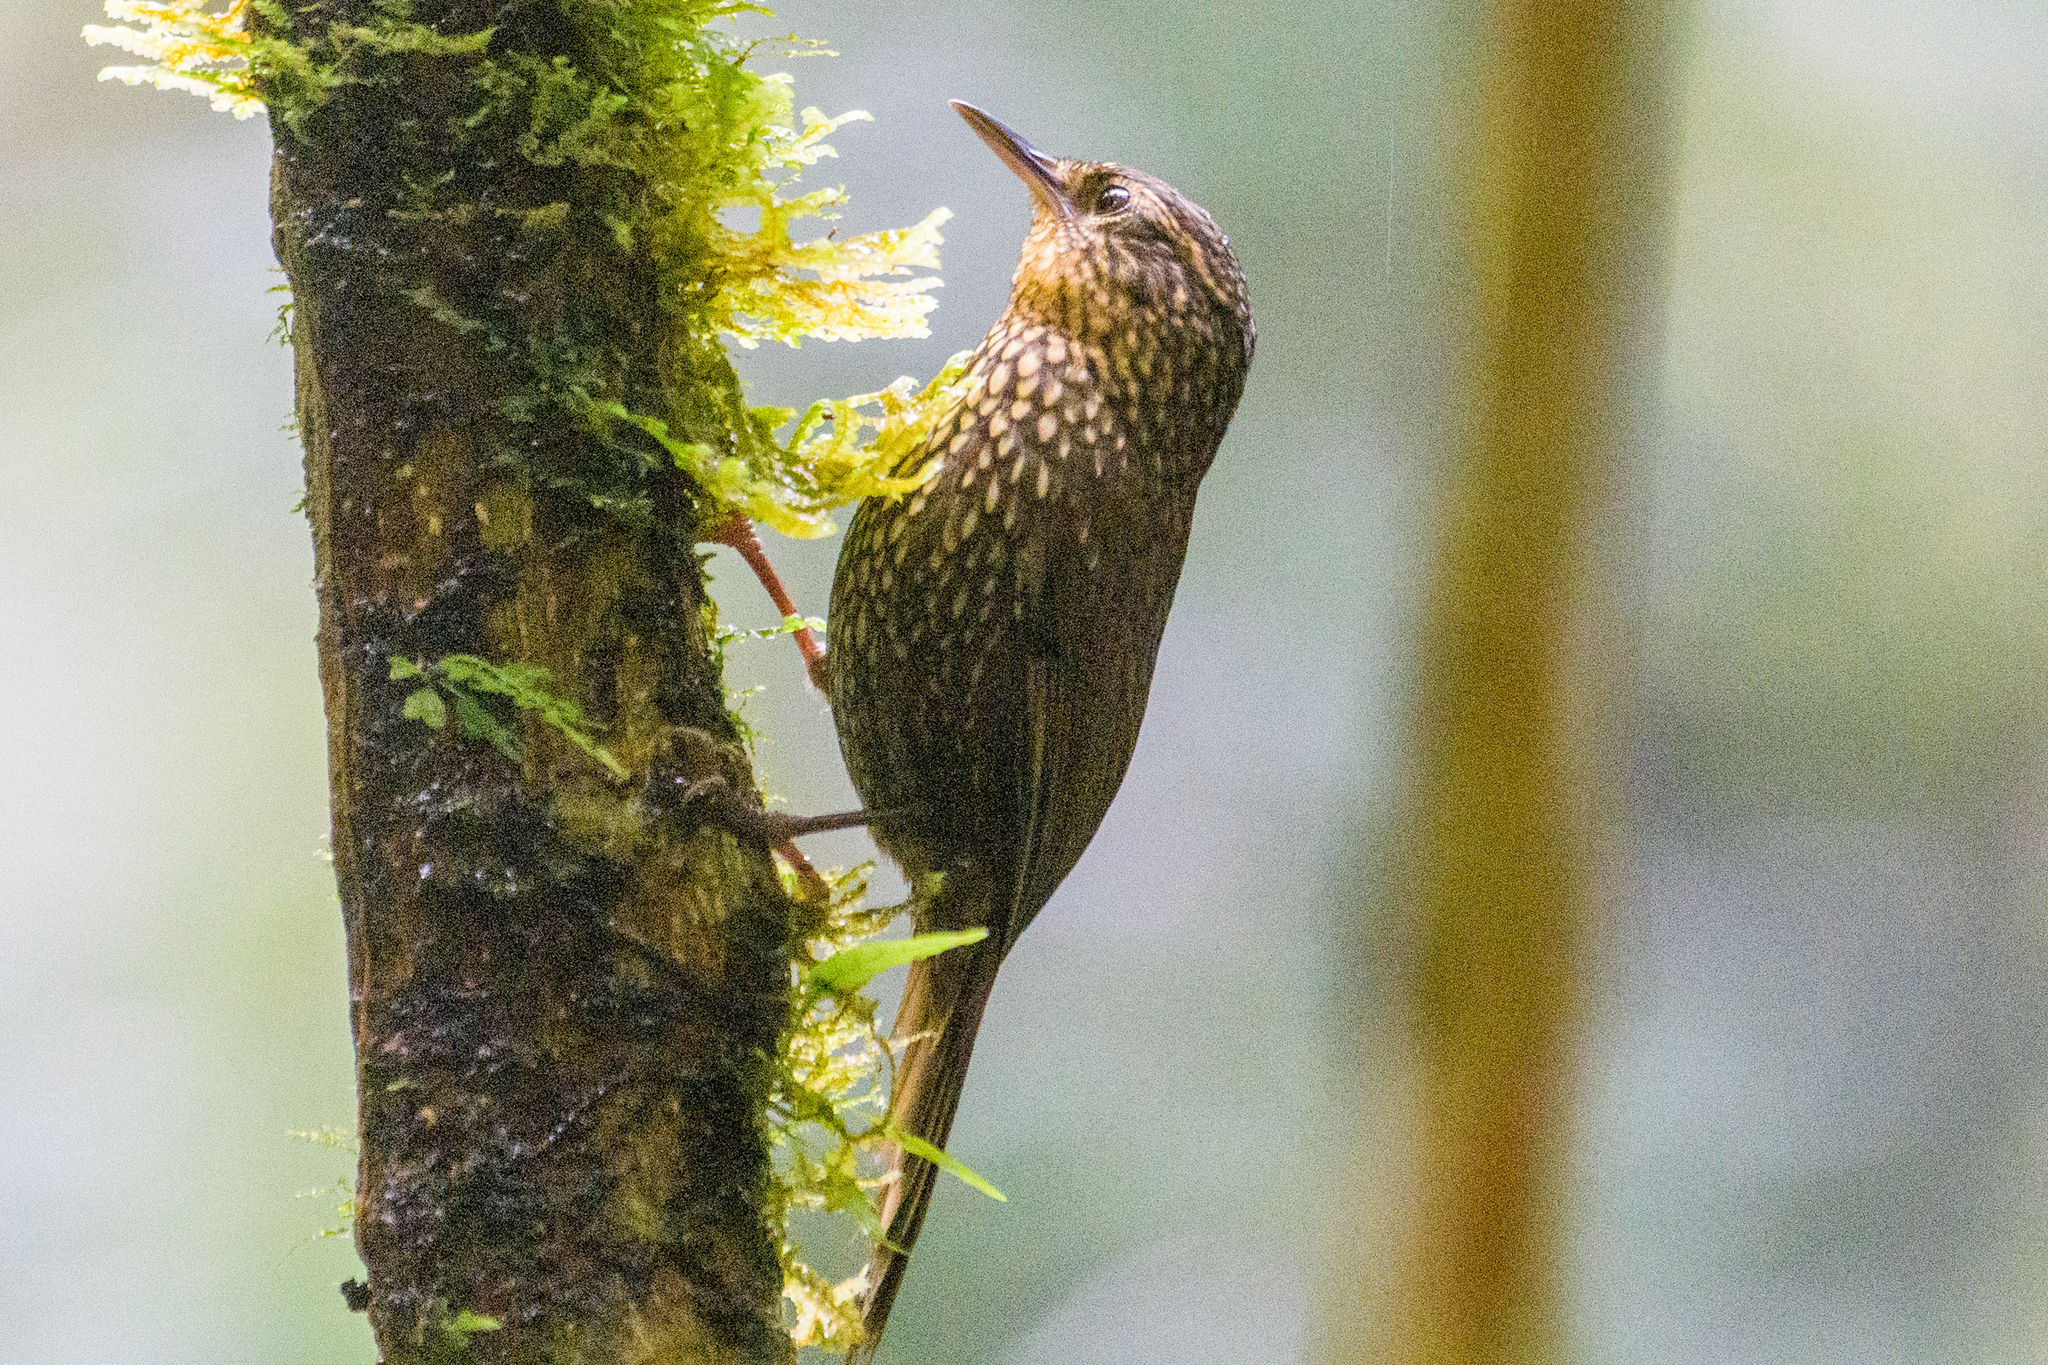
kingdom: Animalia
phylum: Chordata
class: Aves
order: Passeriformes
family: Furnariidae
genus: Premnoplex
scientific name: Premnoplex brunnescens
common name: Spotted barbtail
